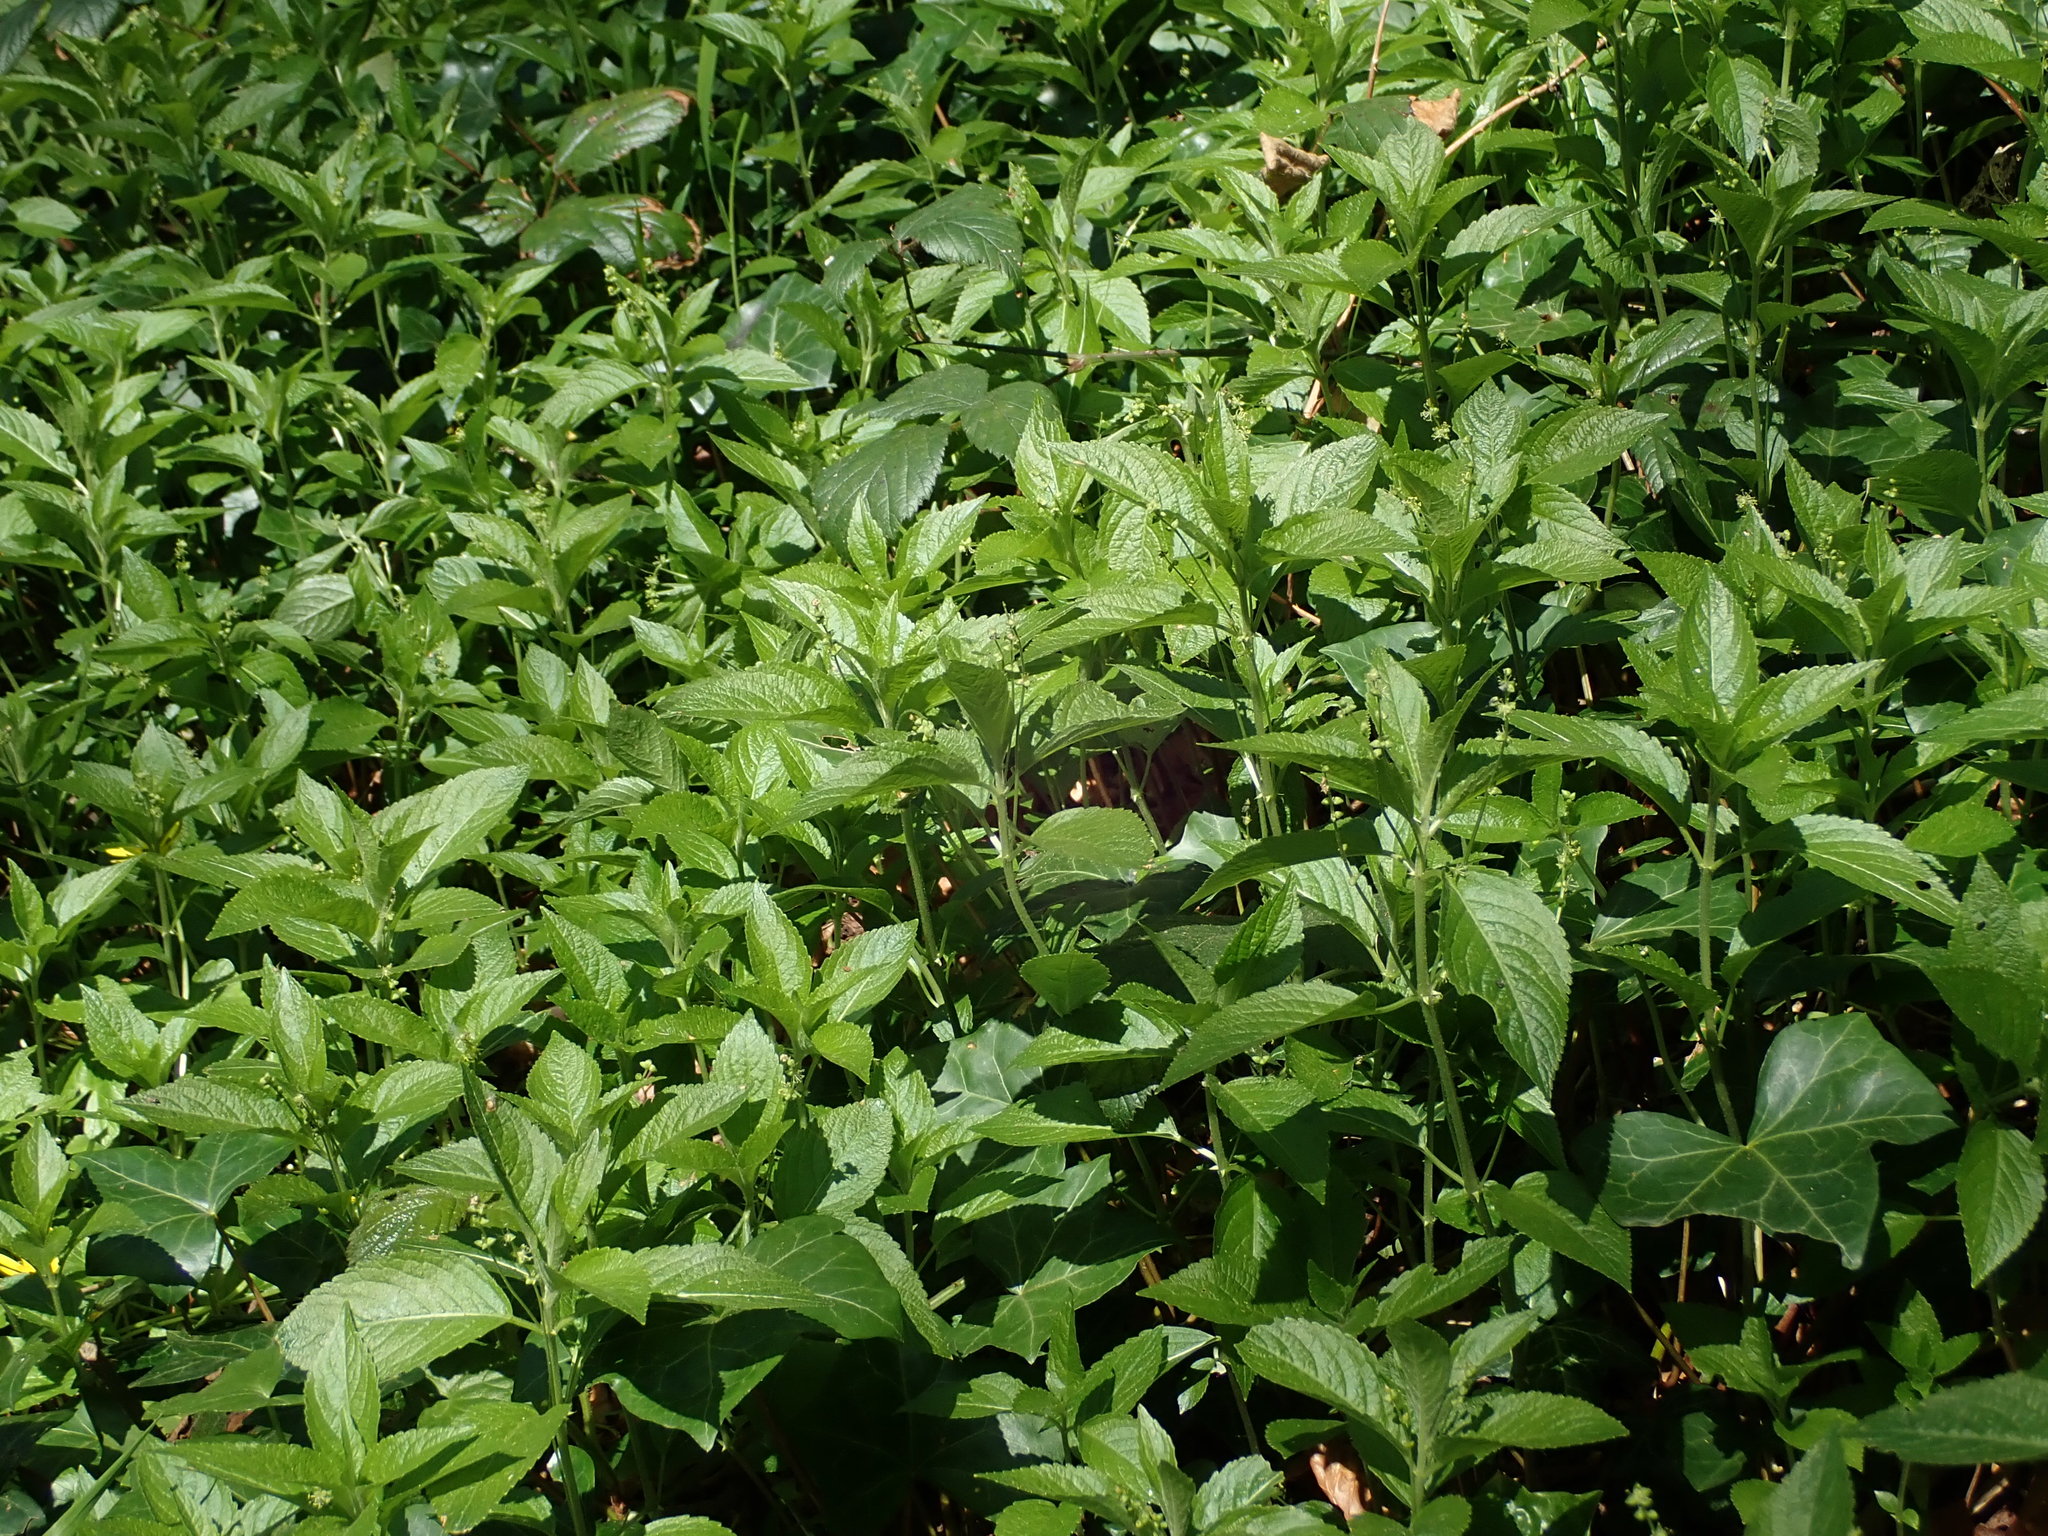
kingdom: Plantae
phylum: Tracheophyta
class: Magnoliopsida
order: Malpighiales
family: Euphorbiaceae
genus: Mercurialis
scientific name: Mercurialis perennis
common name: Dog mercury
